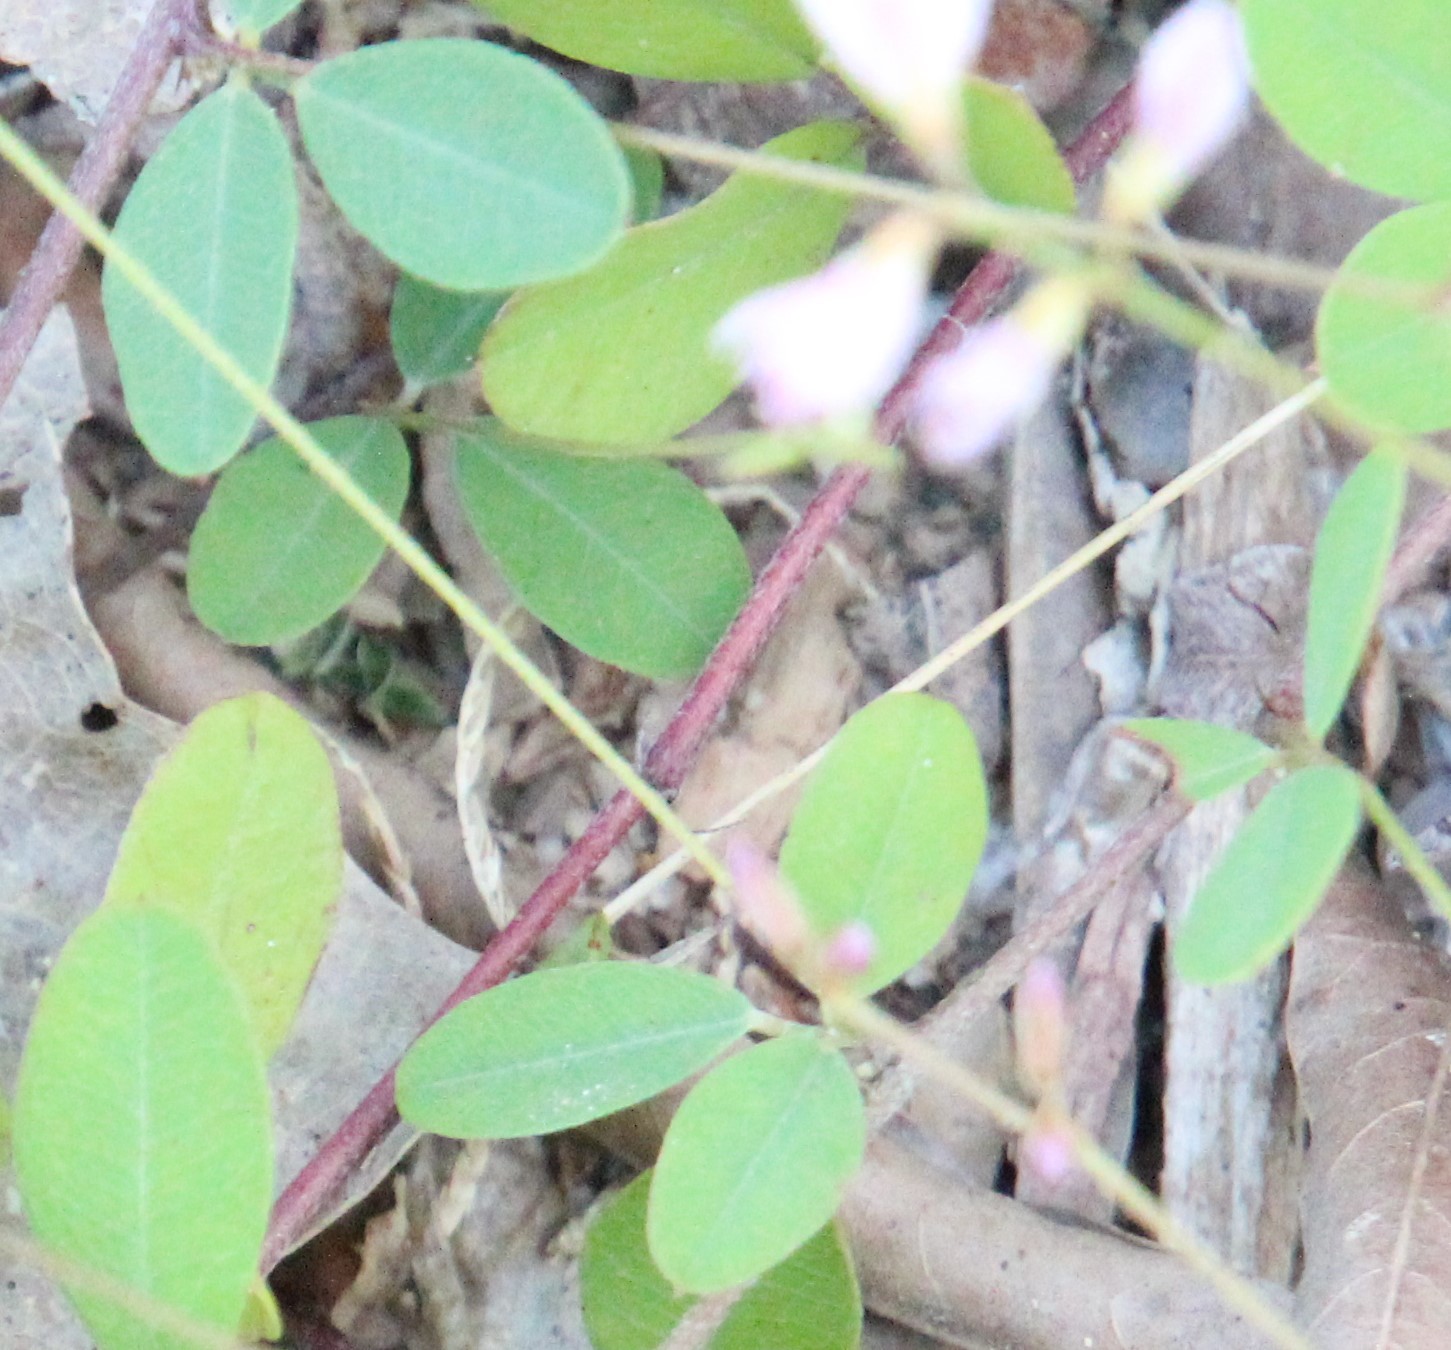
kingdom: Plantae
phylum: Tracheophyta
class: Magnoliopsida
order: Fabales
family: Fabaceae
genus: Lespedeza
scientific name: Lespedeza repens
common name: Creeping bush-clover
